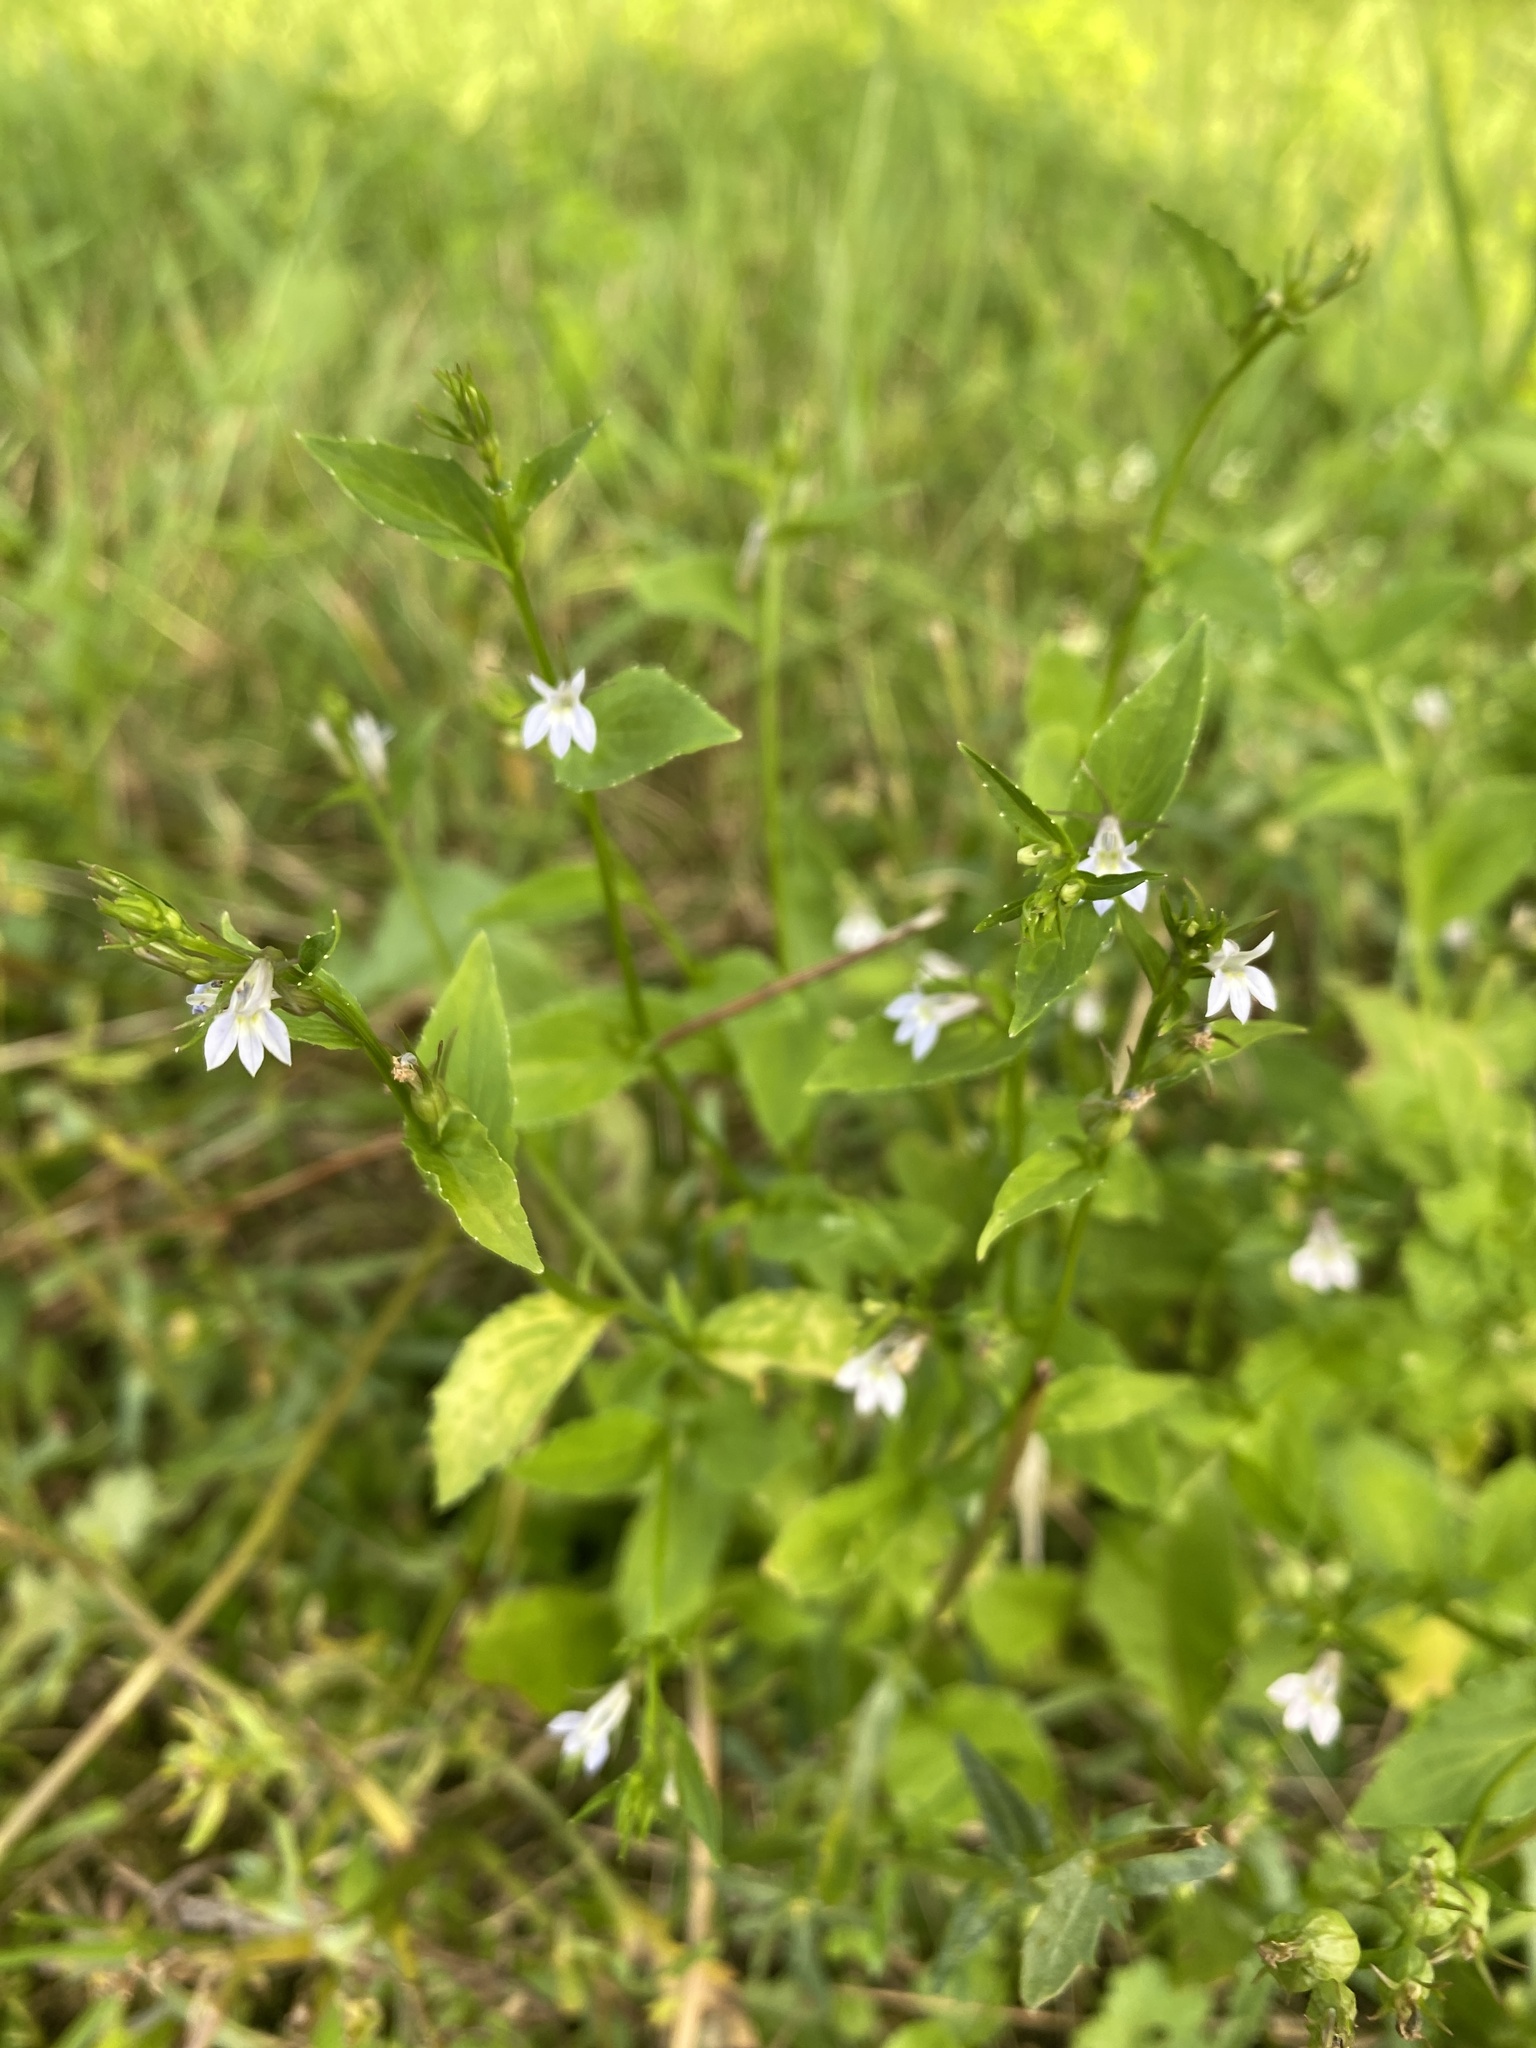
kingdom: Plantae
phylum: Tracheophyta
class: Magnoliopsida
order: Asterales
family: Campanulaceae
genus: Lobelia
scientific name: Lobelia inflata
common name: Indian tobacco
